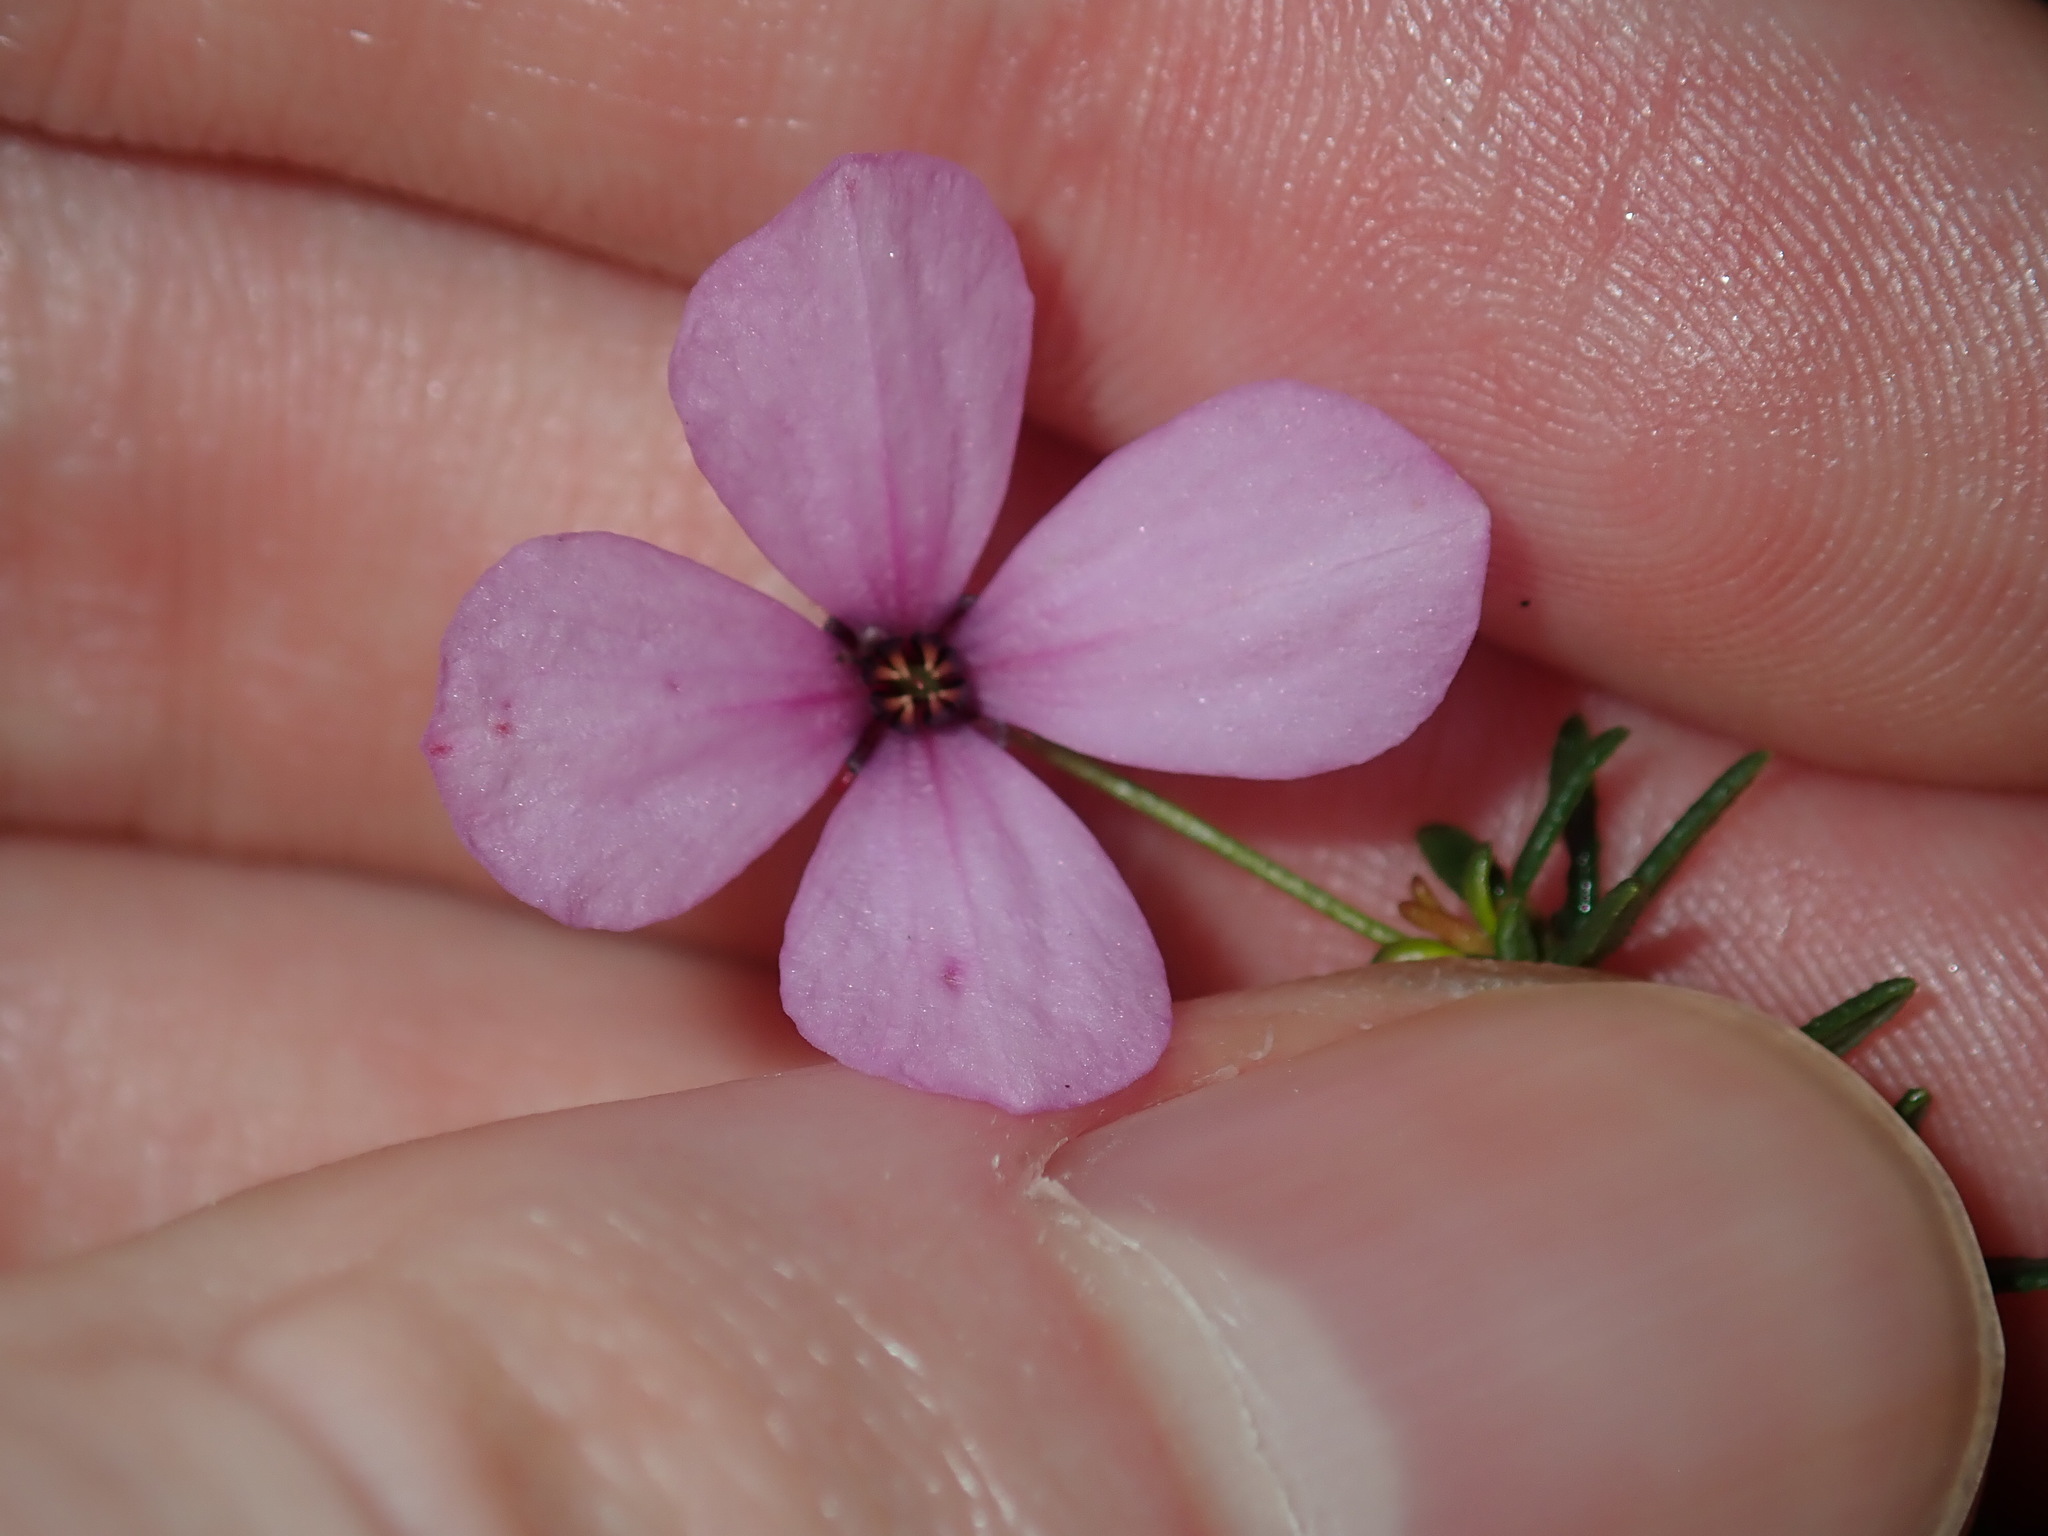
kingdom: Plantae
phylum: Tracheophyta
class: Magnoliopsida
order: Oxalidales
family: Elaeocarpaceae
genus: Tetratheca
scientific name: Tetratheca ericifolia
